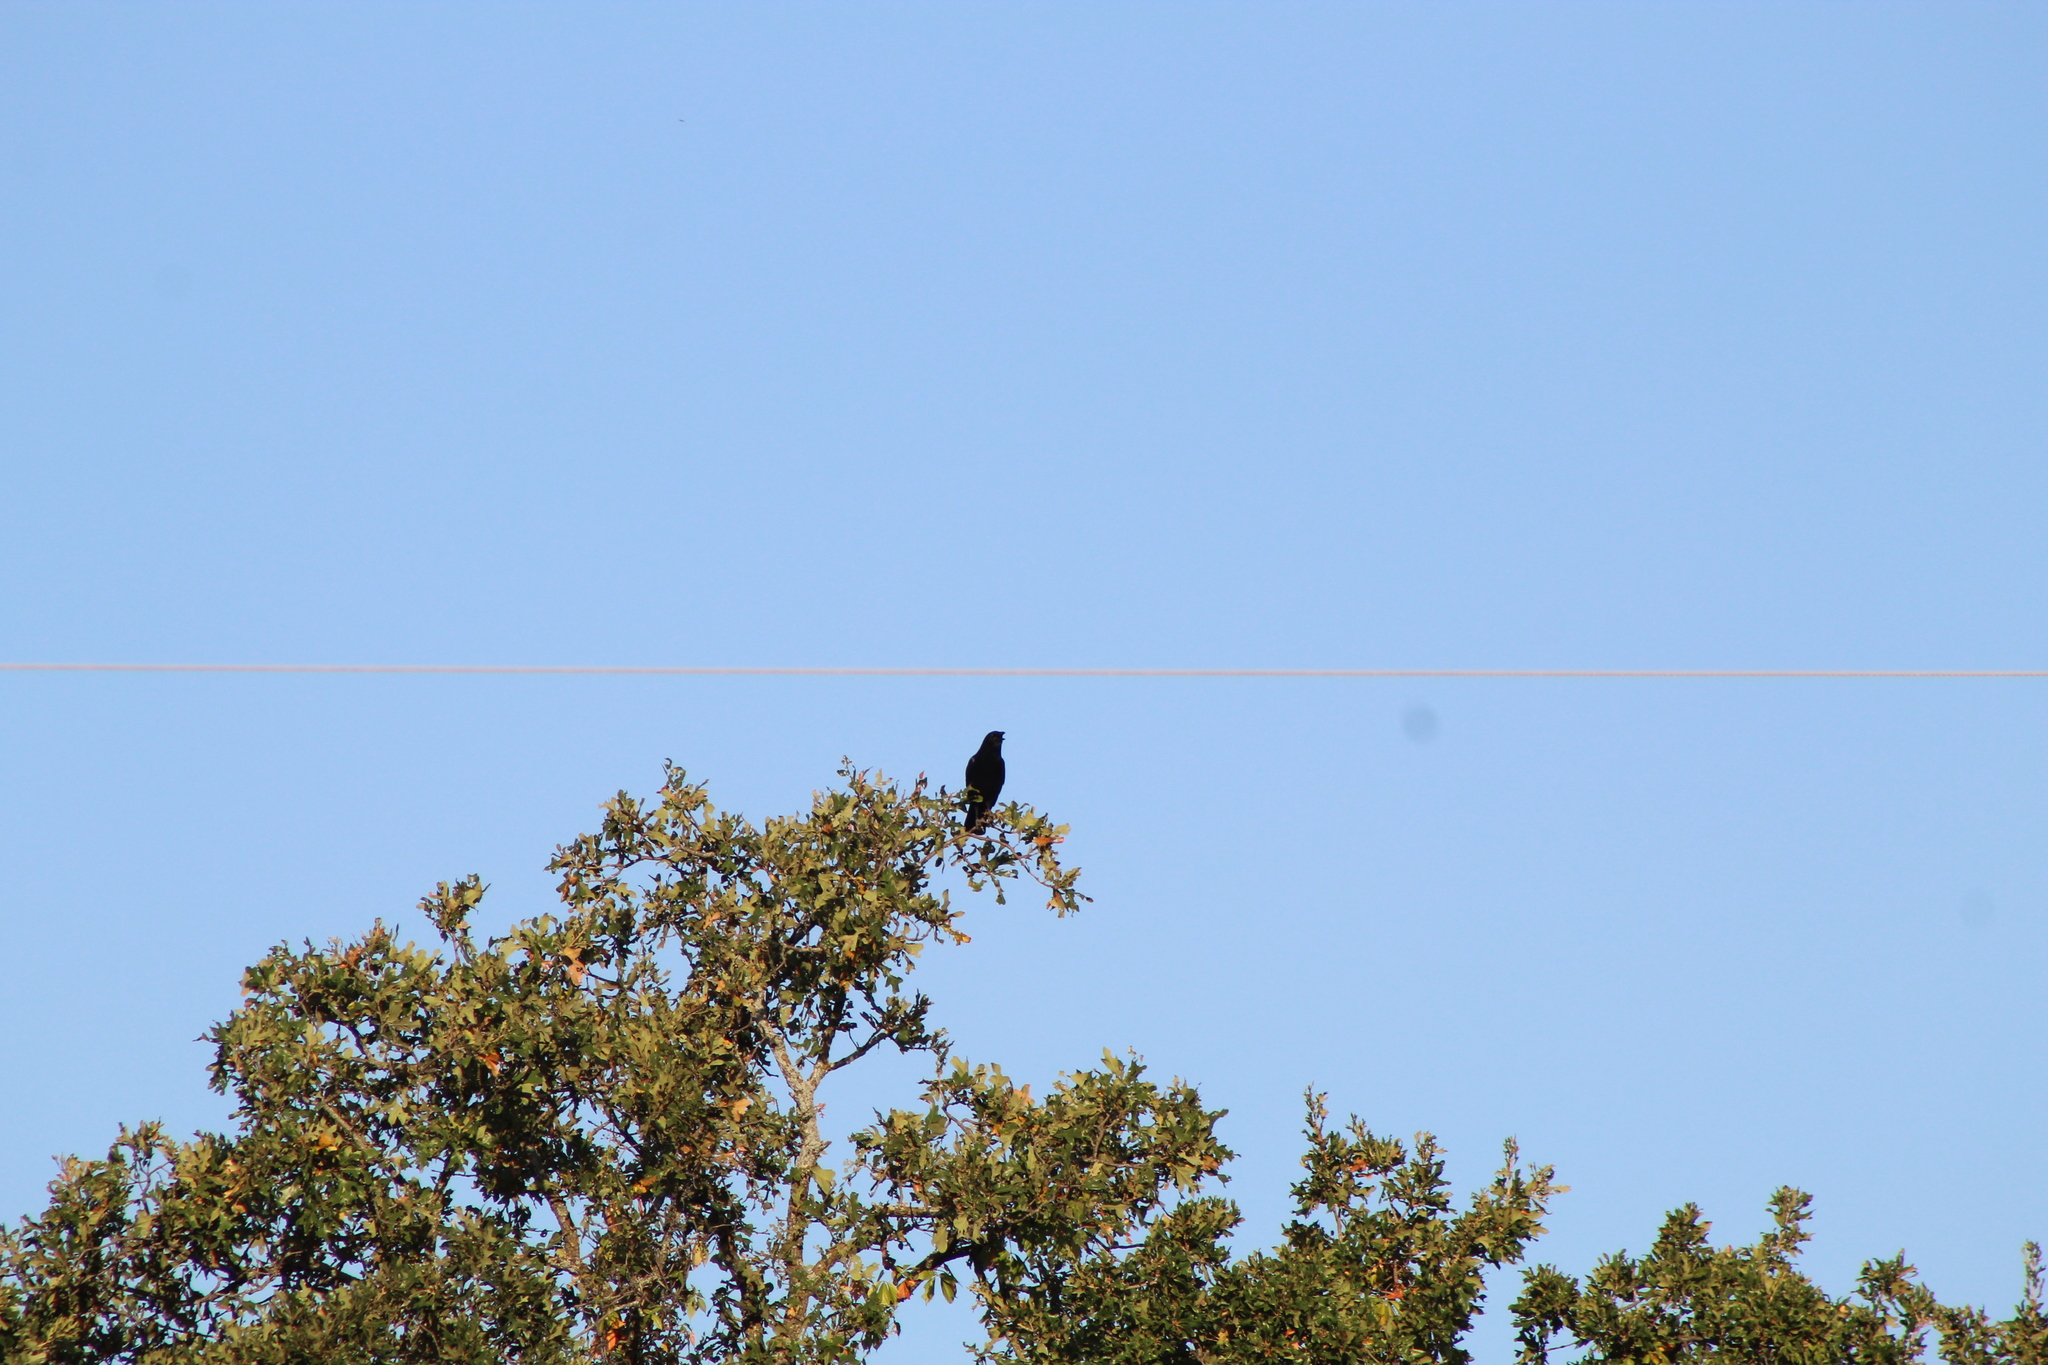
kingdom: Animalia
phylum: Chordata
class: Aves
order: Passeriformes
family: Corvidae
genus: Corvus
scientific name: Corvus brachyrhynchos
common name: American crow
